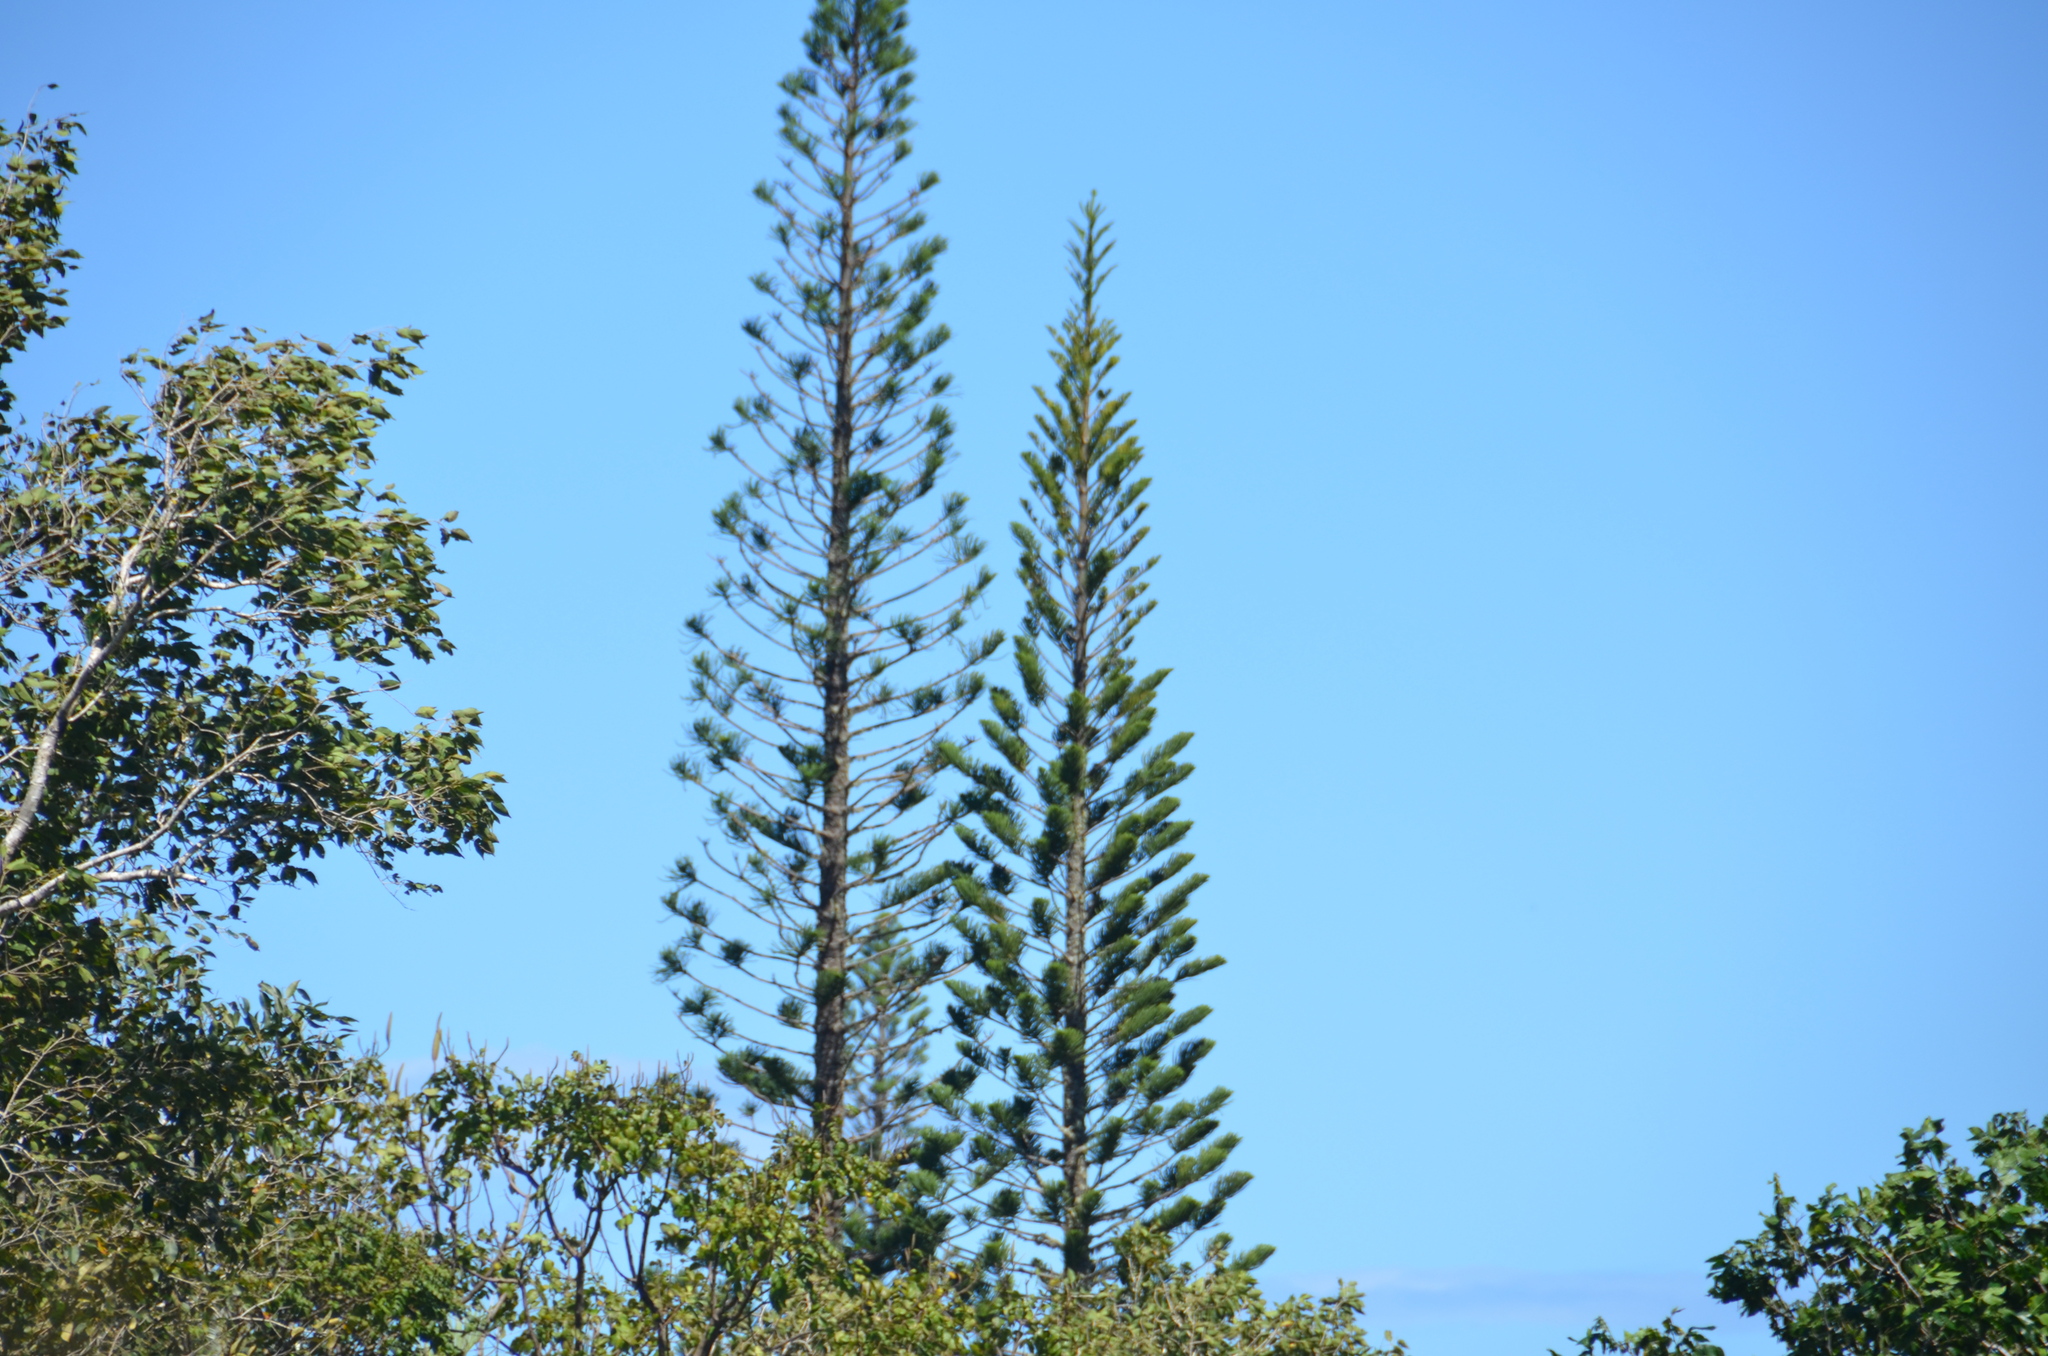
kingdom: Plantae
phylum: Tracheophyta
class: Pinopsida
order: Pinales
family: Araucariaceae
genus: Araucaria
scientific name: Araucaria columnaris
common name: Coral reef araucaria
